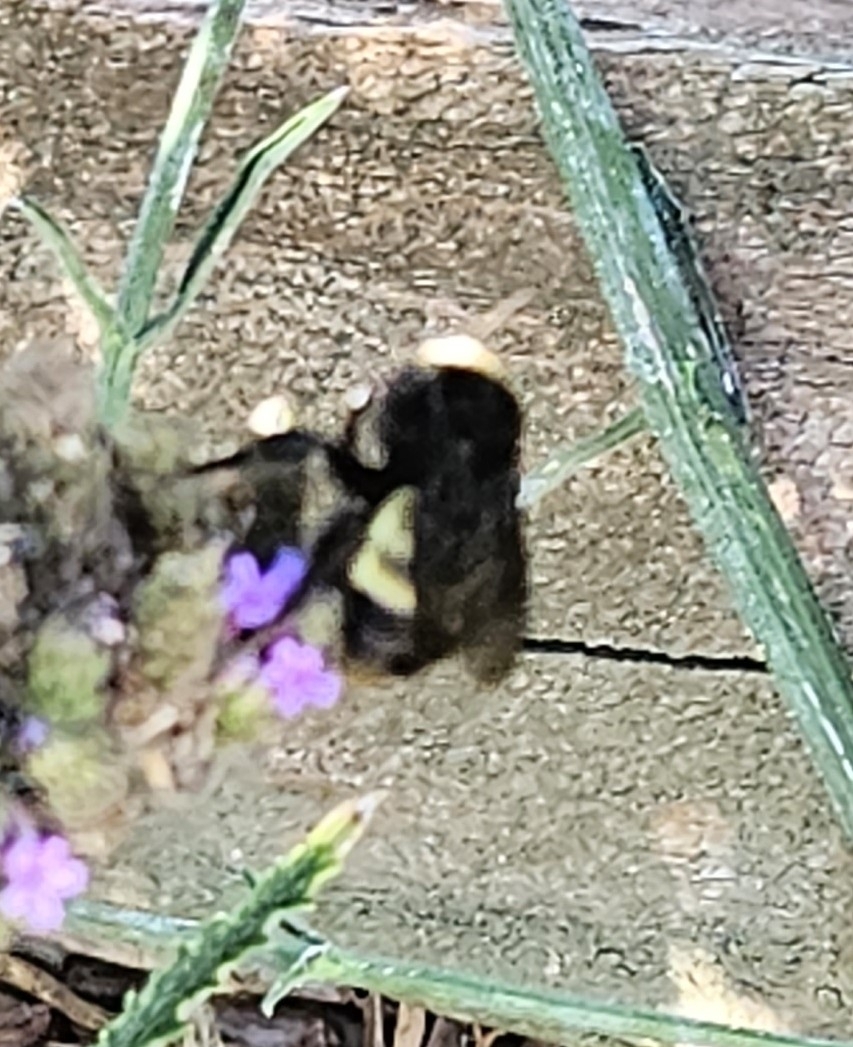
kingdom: Animalia
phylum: Arthropoda
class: Insecta
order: Hymenoptera
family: Apidae
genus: Bombus
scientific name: Bombus pensylvanicus
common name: Bumble bee
